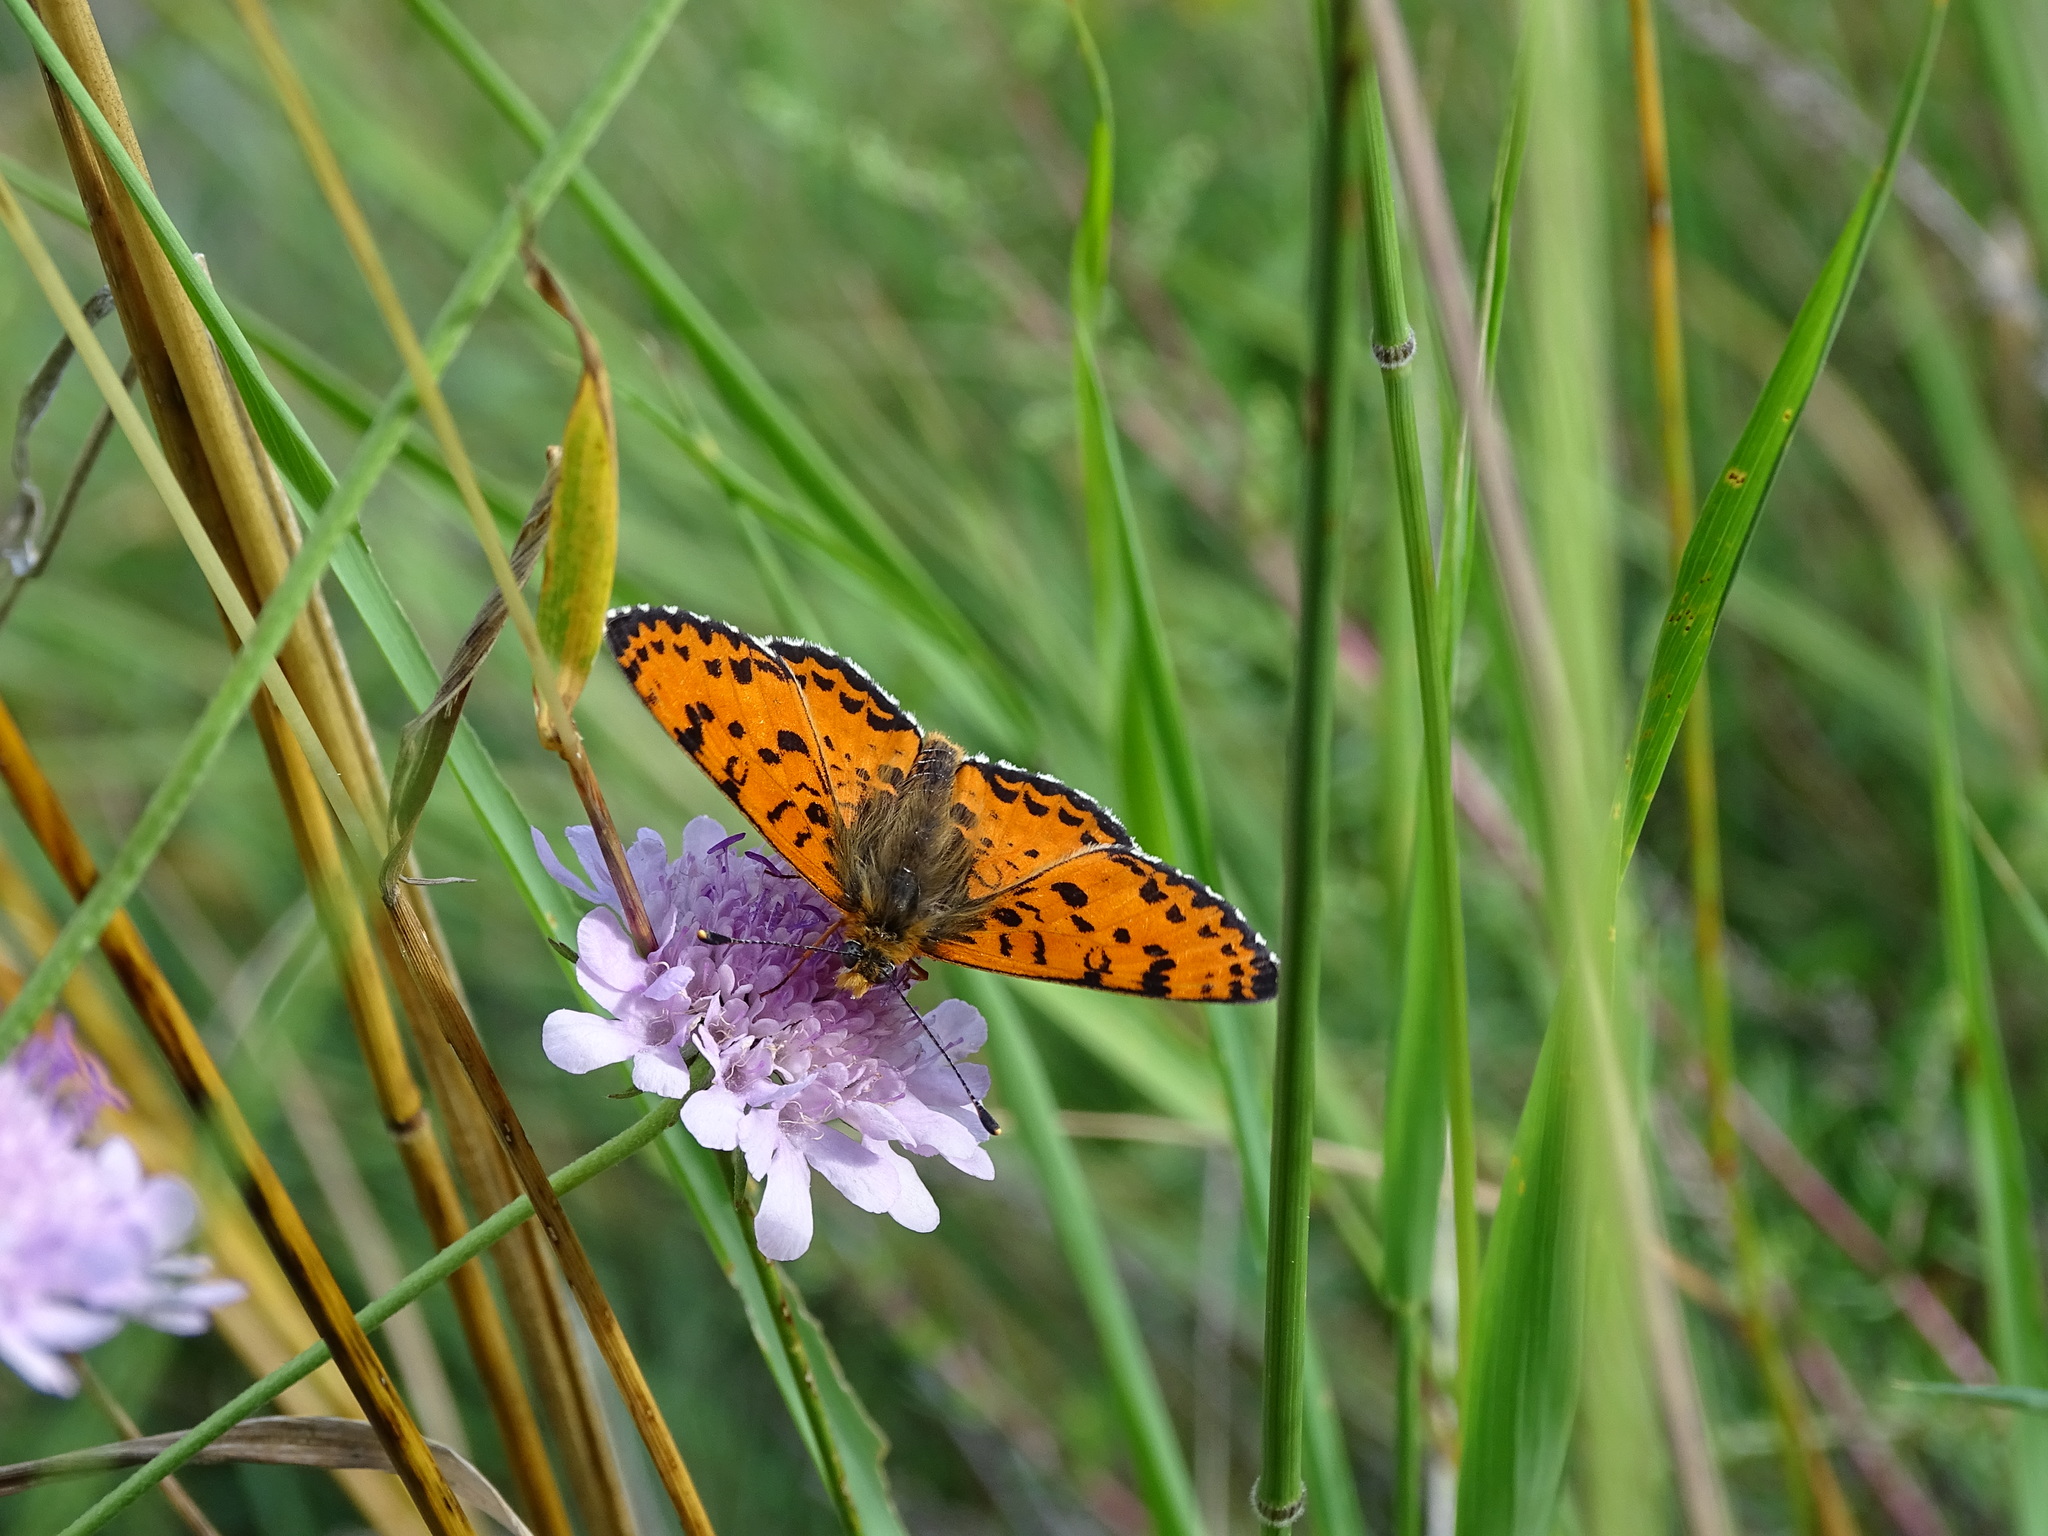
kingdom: Animalia
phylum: Arthropoda
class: Insecta
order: Lepidoptera
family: Nymphalidae
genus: Melitaea
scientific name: Melitaea didyma
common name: Spotted fritillary
